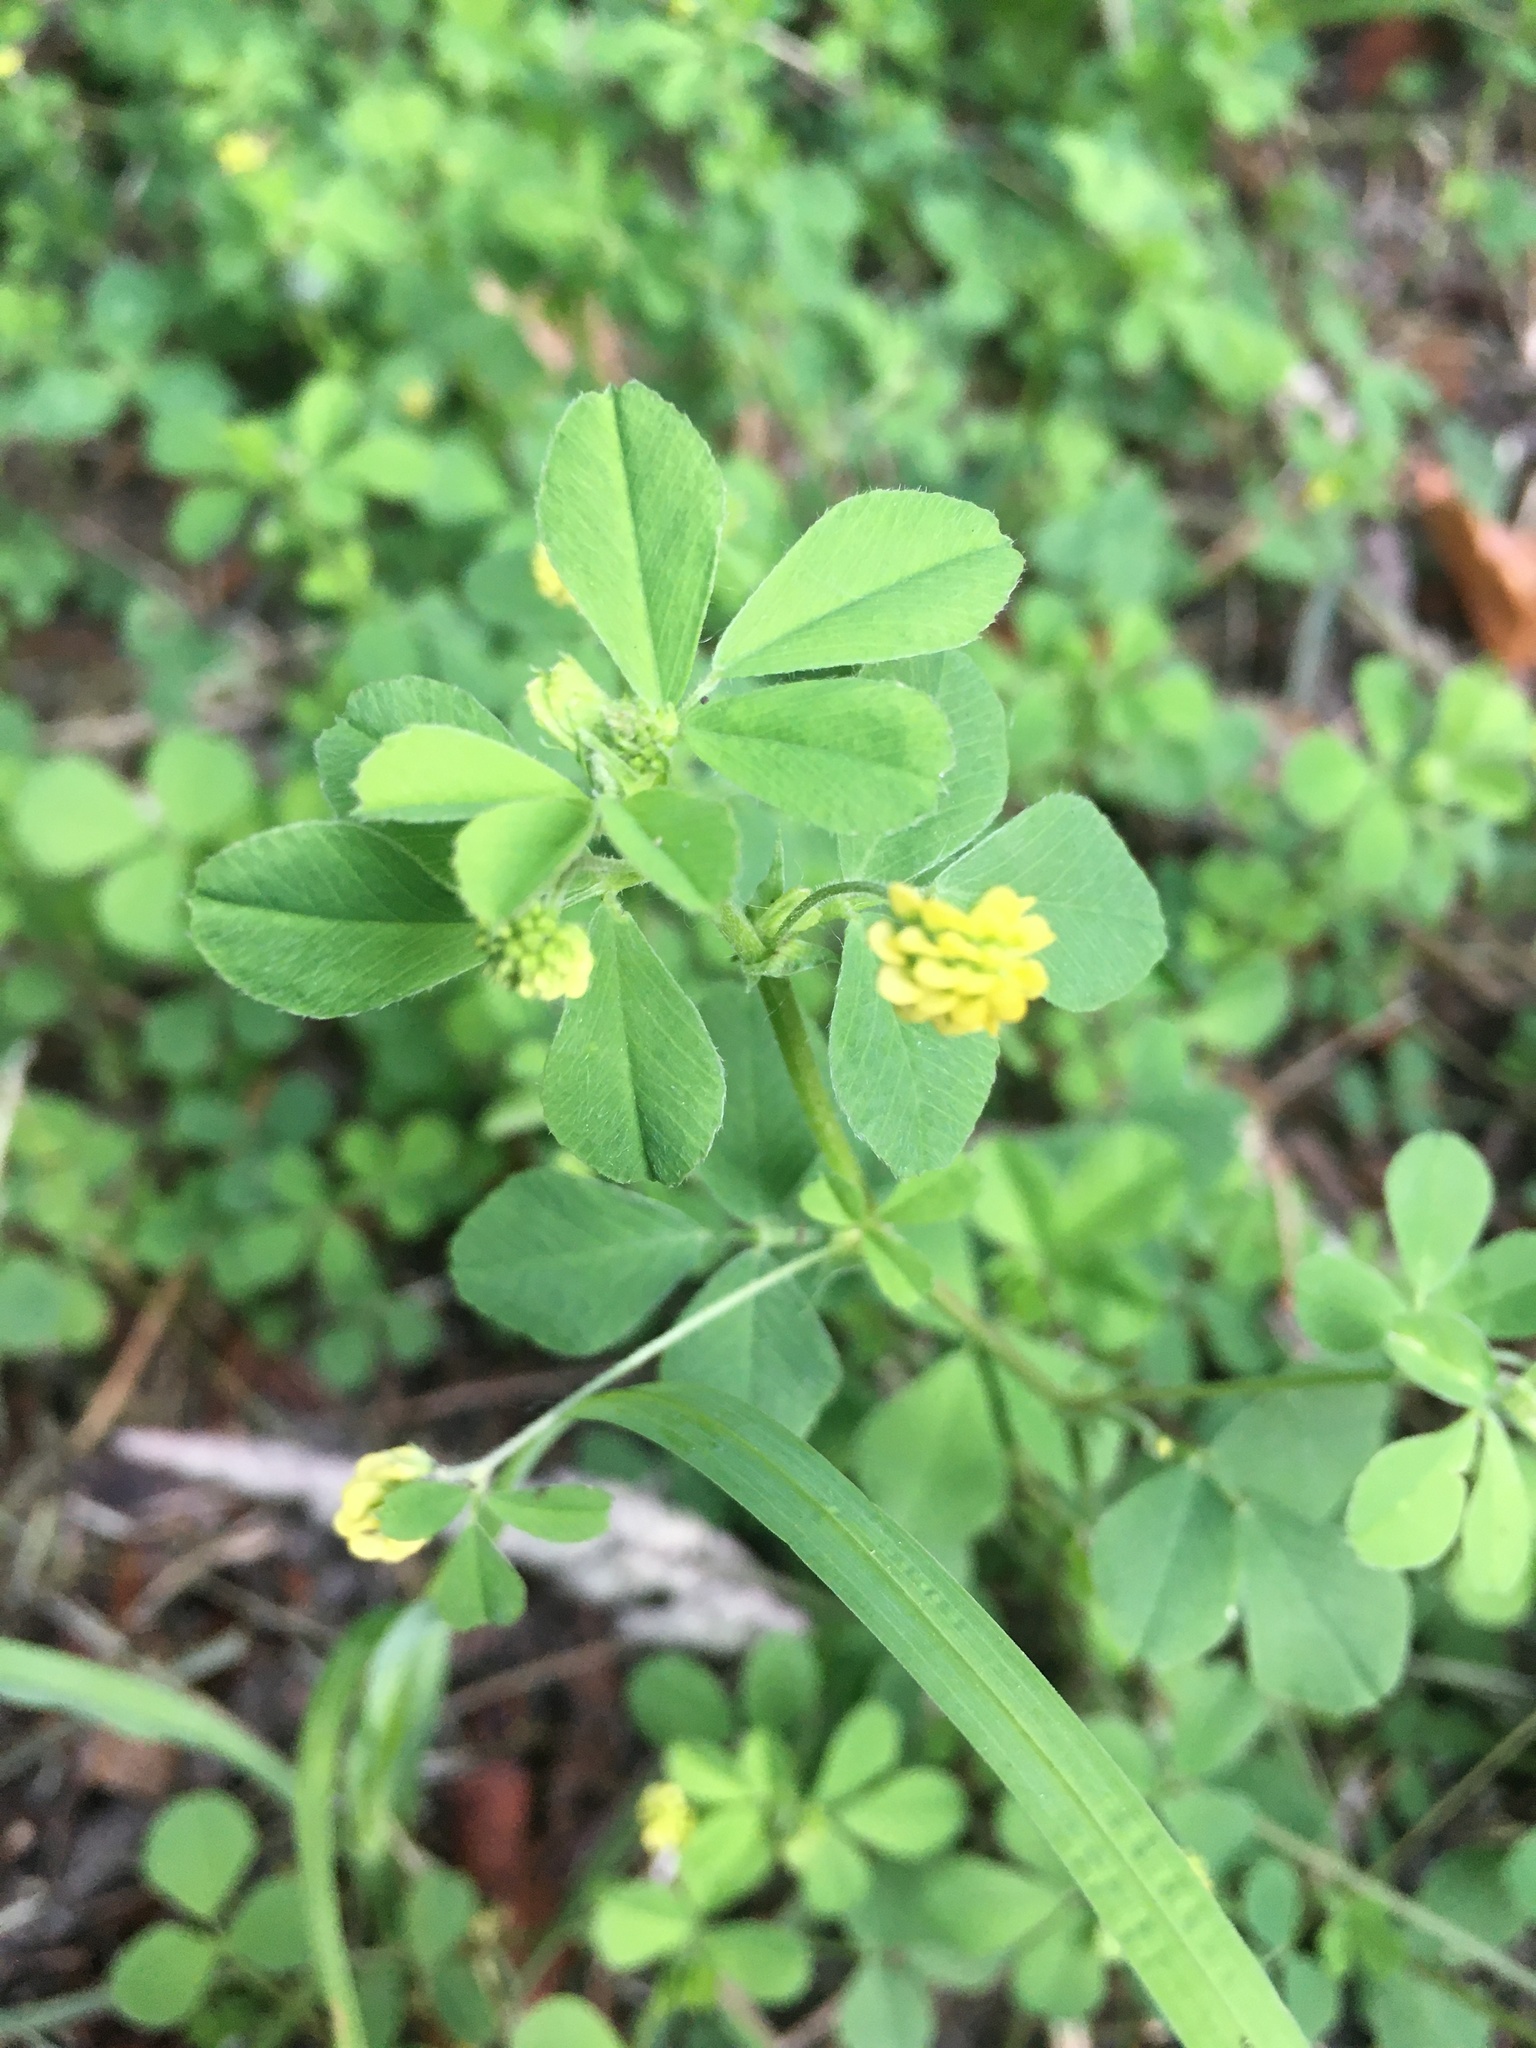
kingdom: Plantae
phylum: Tracheophyta
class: Magnoliopsida
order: Fabales
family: Fabaceae
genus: Medicago
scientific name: Medicago lupulina
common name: Black medick
